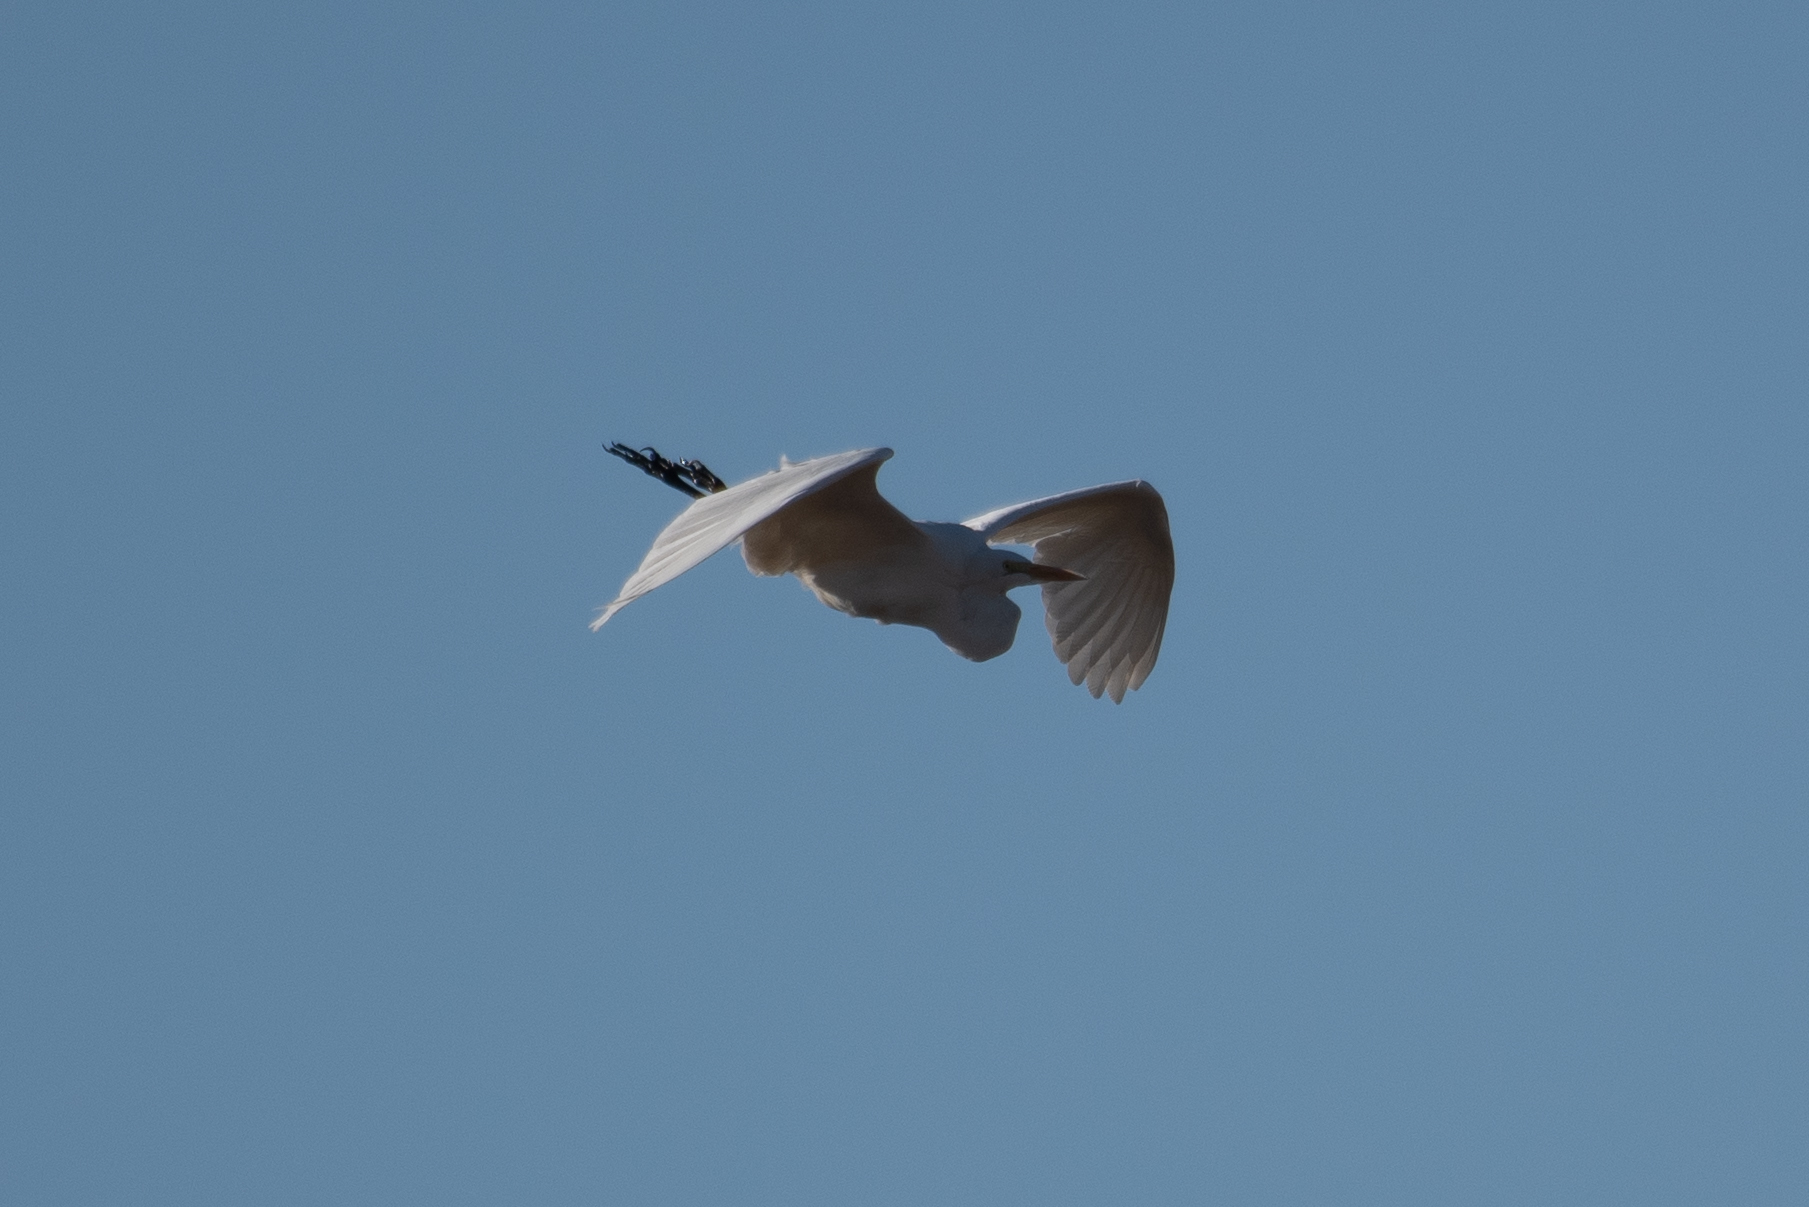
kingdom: Animalia
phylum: Chordata
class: Aves
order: Pelecaniformes
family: Ardeidae
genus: Ardea
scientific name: Ardea alba
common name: Great egret
